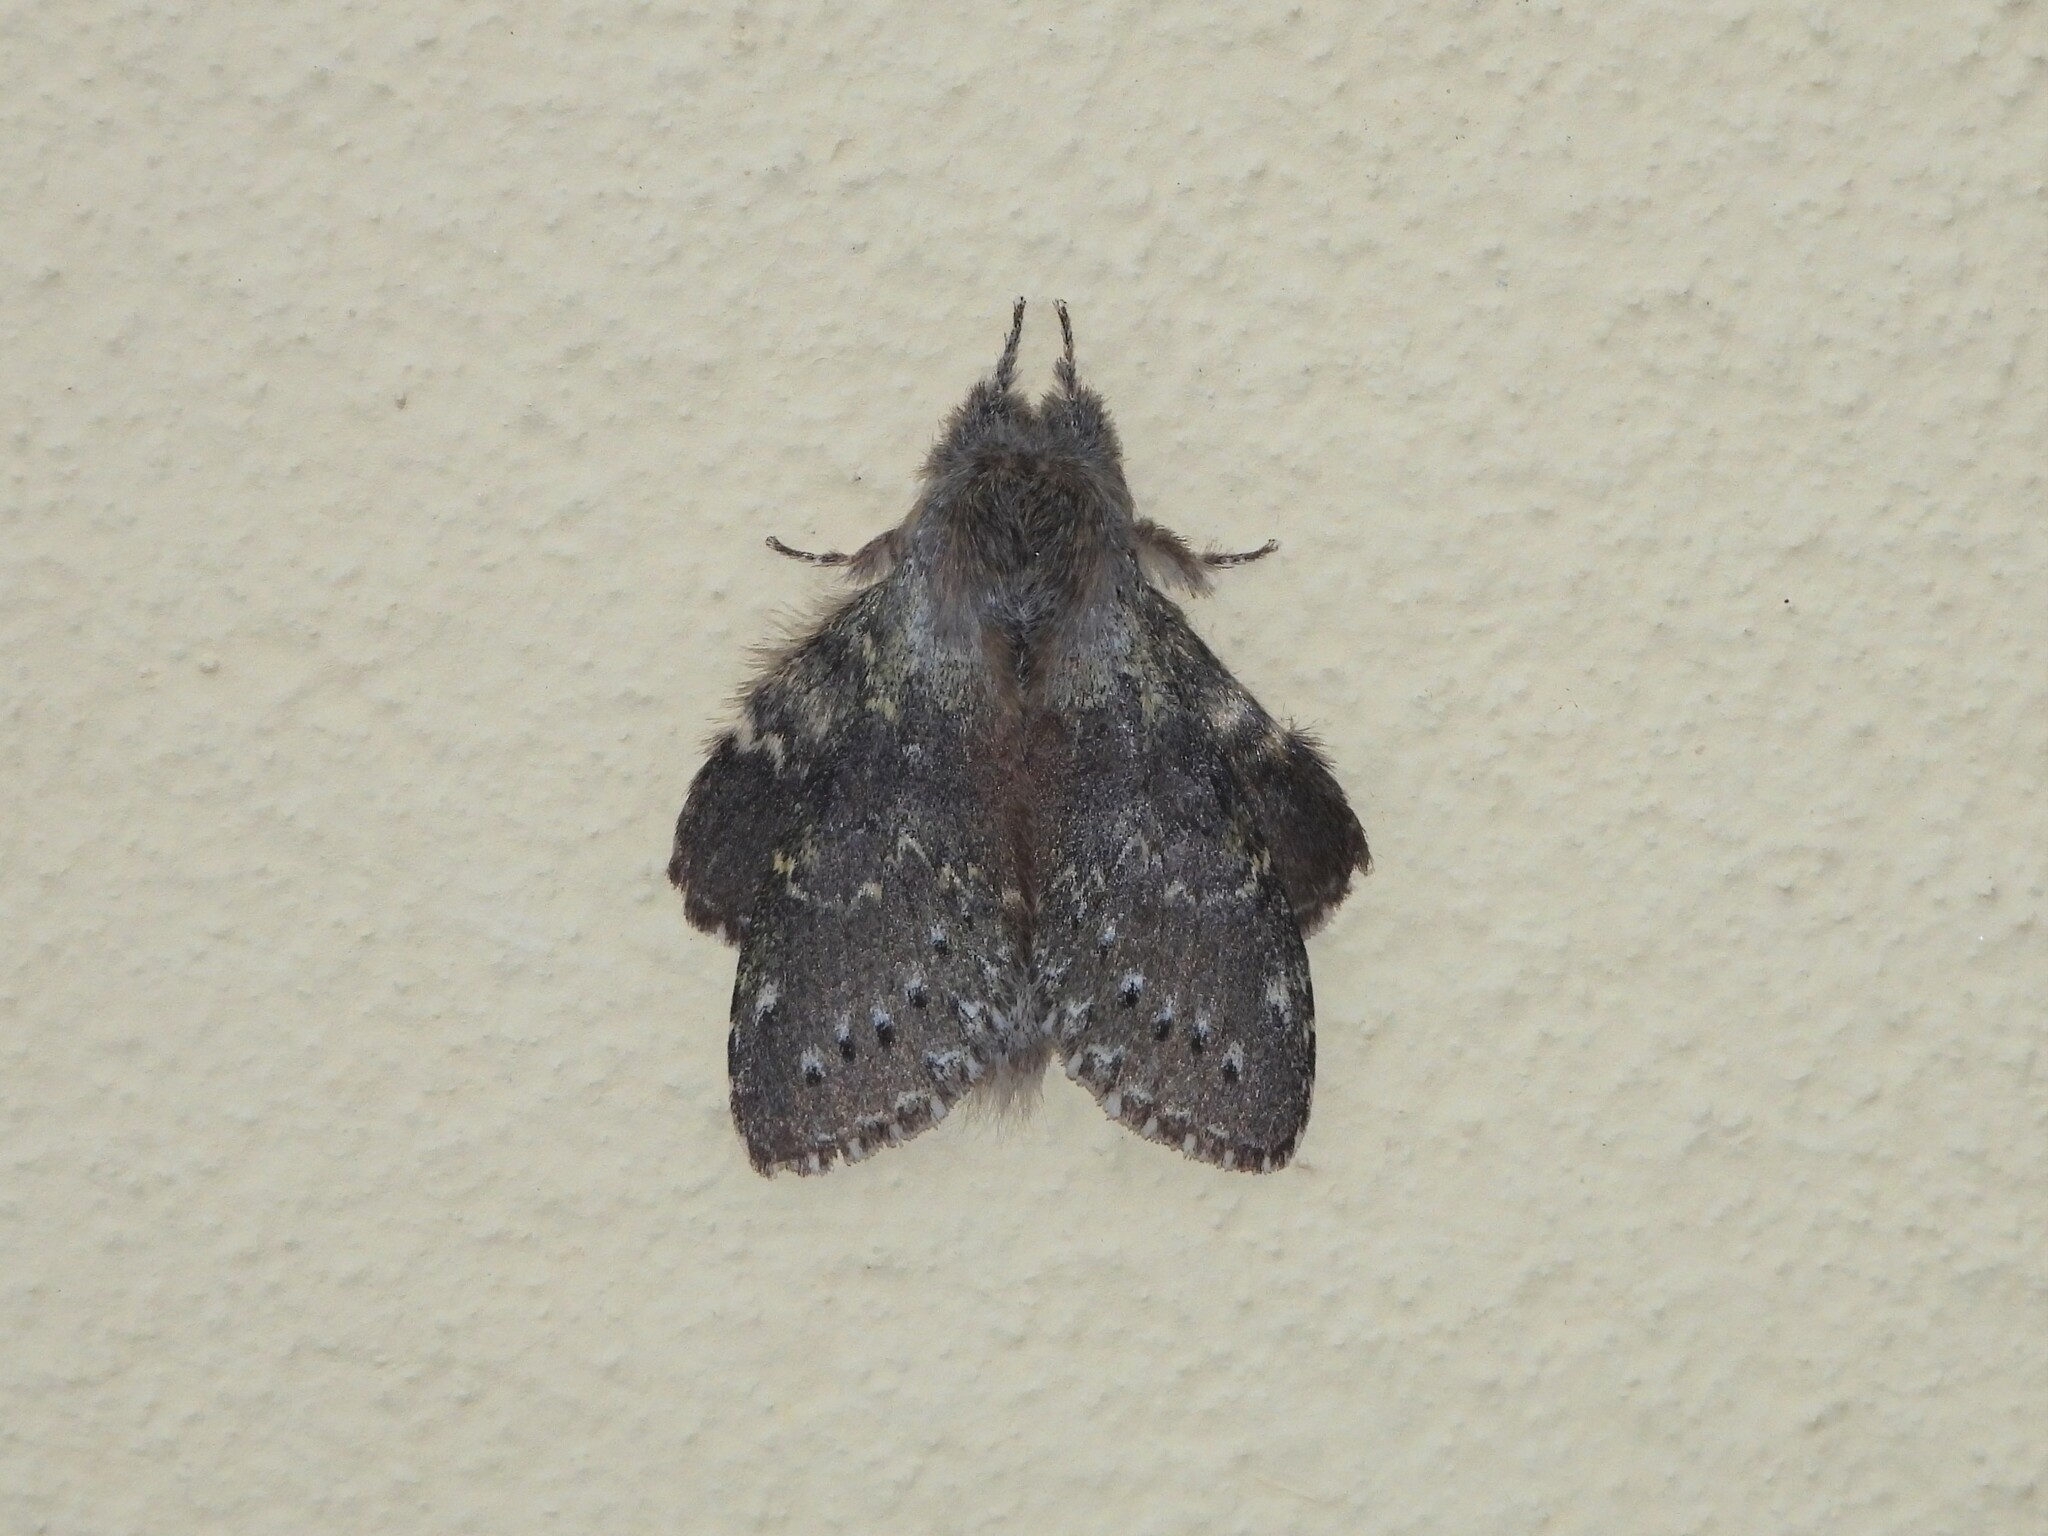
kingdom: Animalia
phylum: Arthropoda
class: Insecta
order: Lepidoptera
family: Notodontidae
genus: Stauropus
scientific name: Stauropus fagi
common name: Lobster moth
